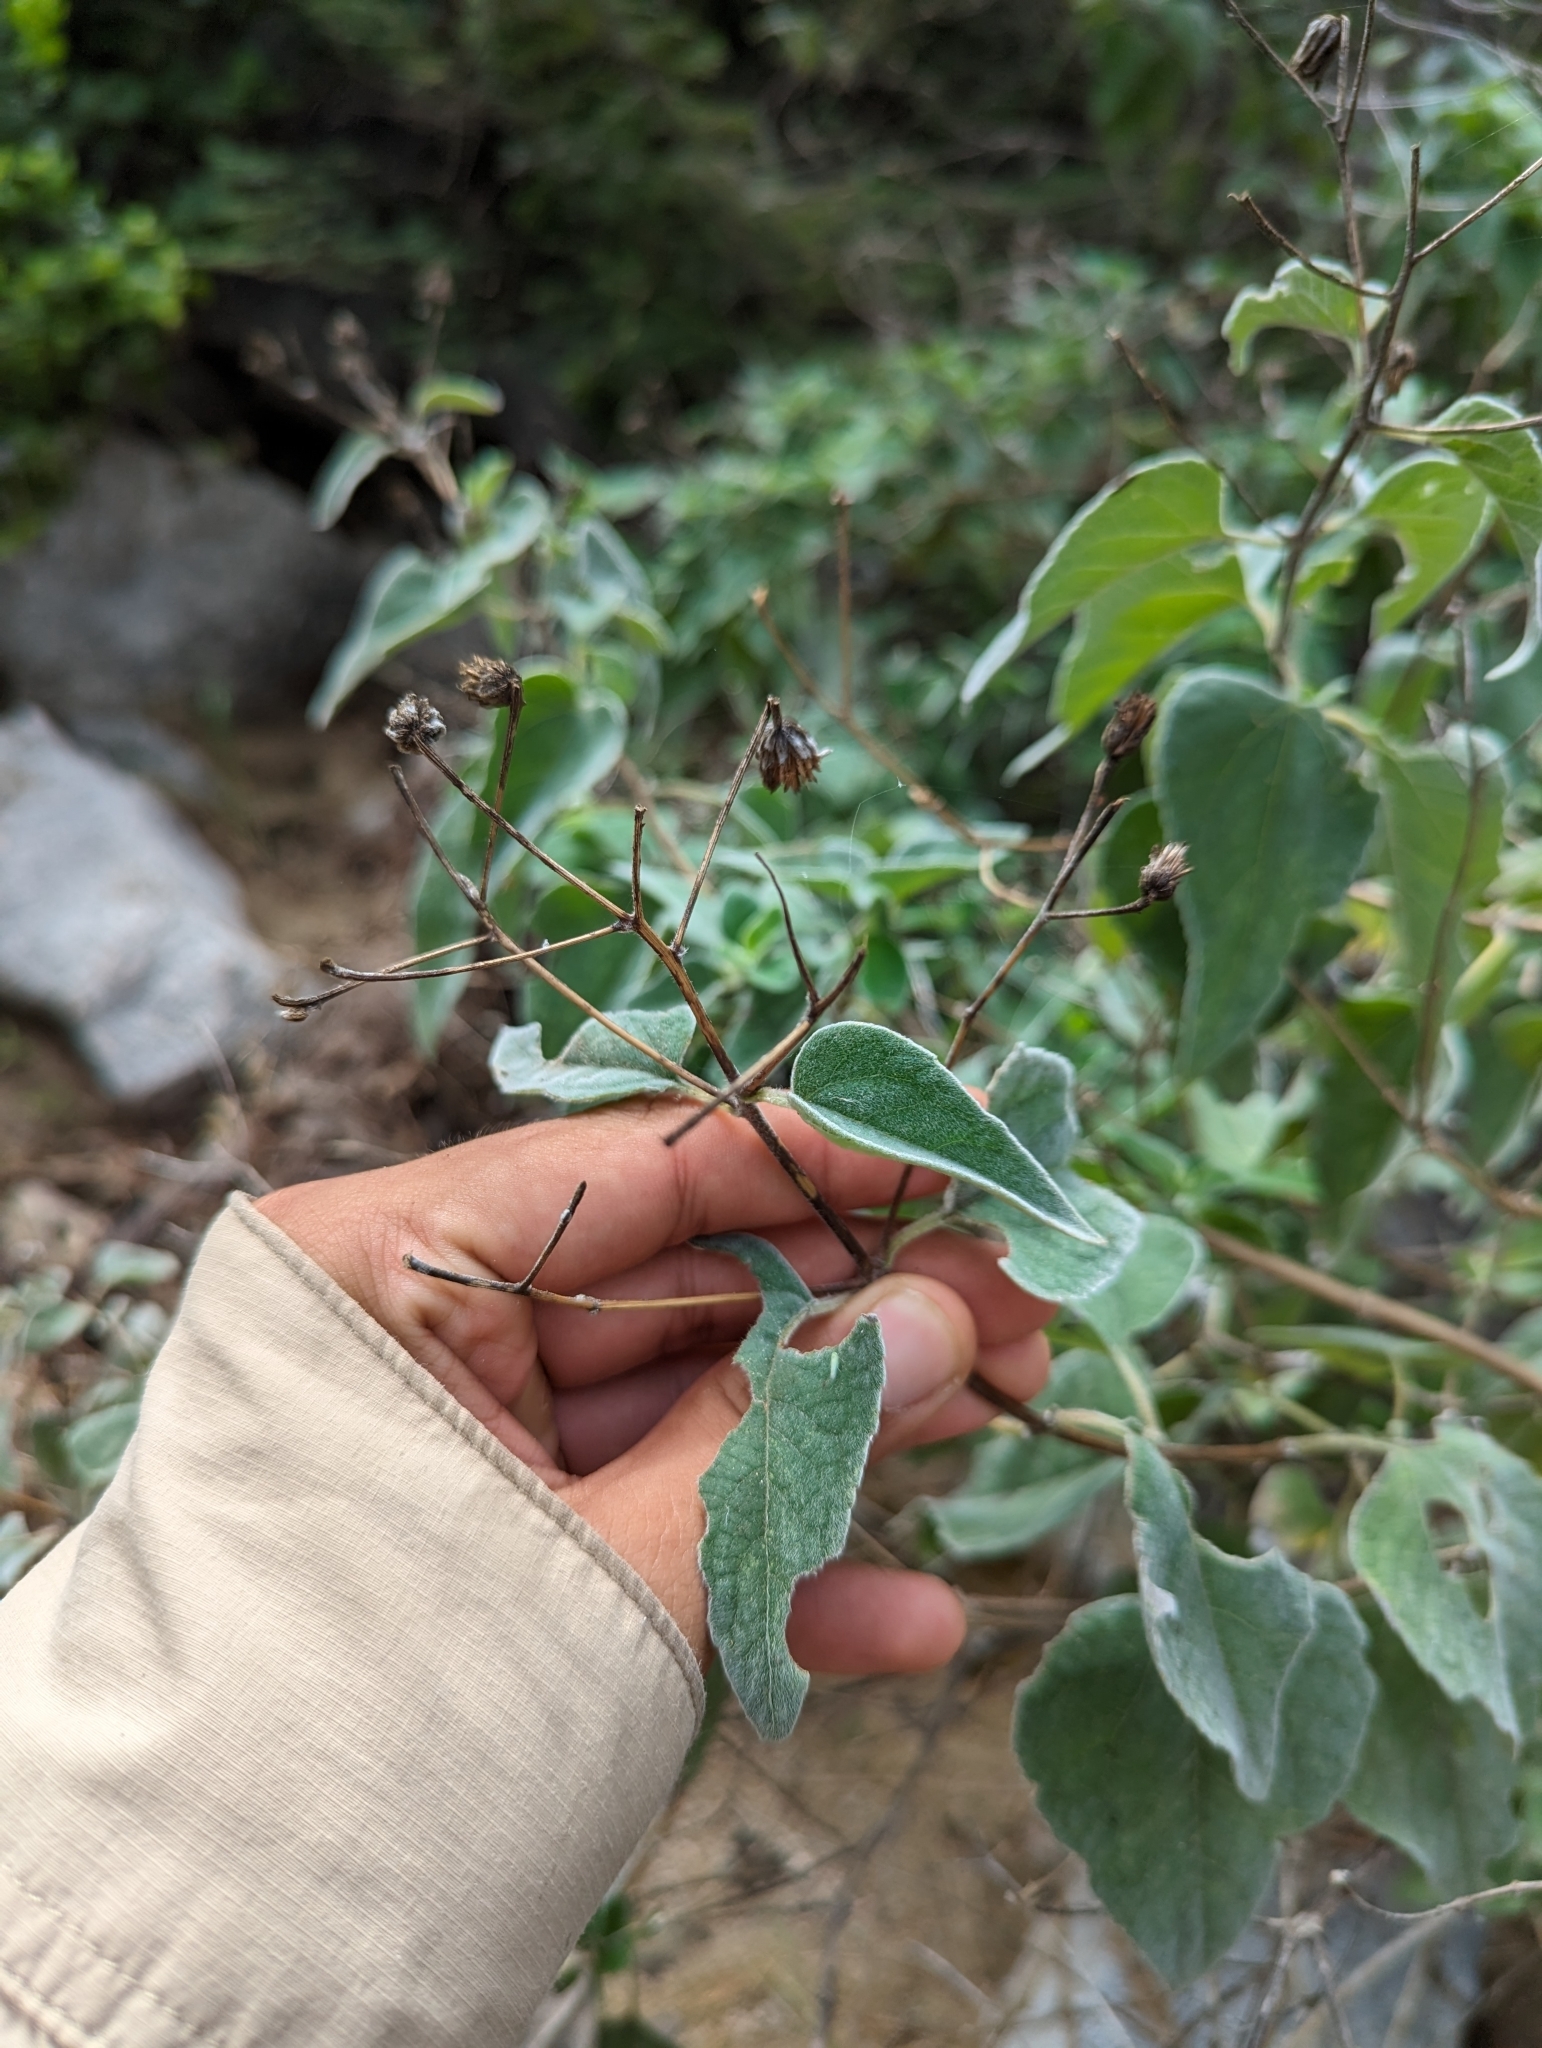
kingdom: Plantae
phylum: Tracheophyta
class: Magnoliopsida
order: Asterales
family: Asteraceae
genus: Bahiopsis
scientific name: Bahiopsis tomentosa
